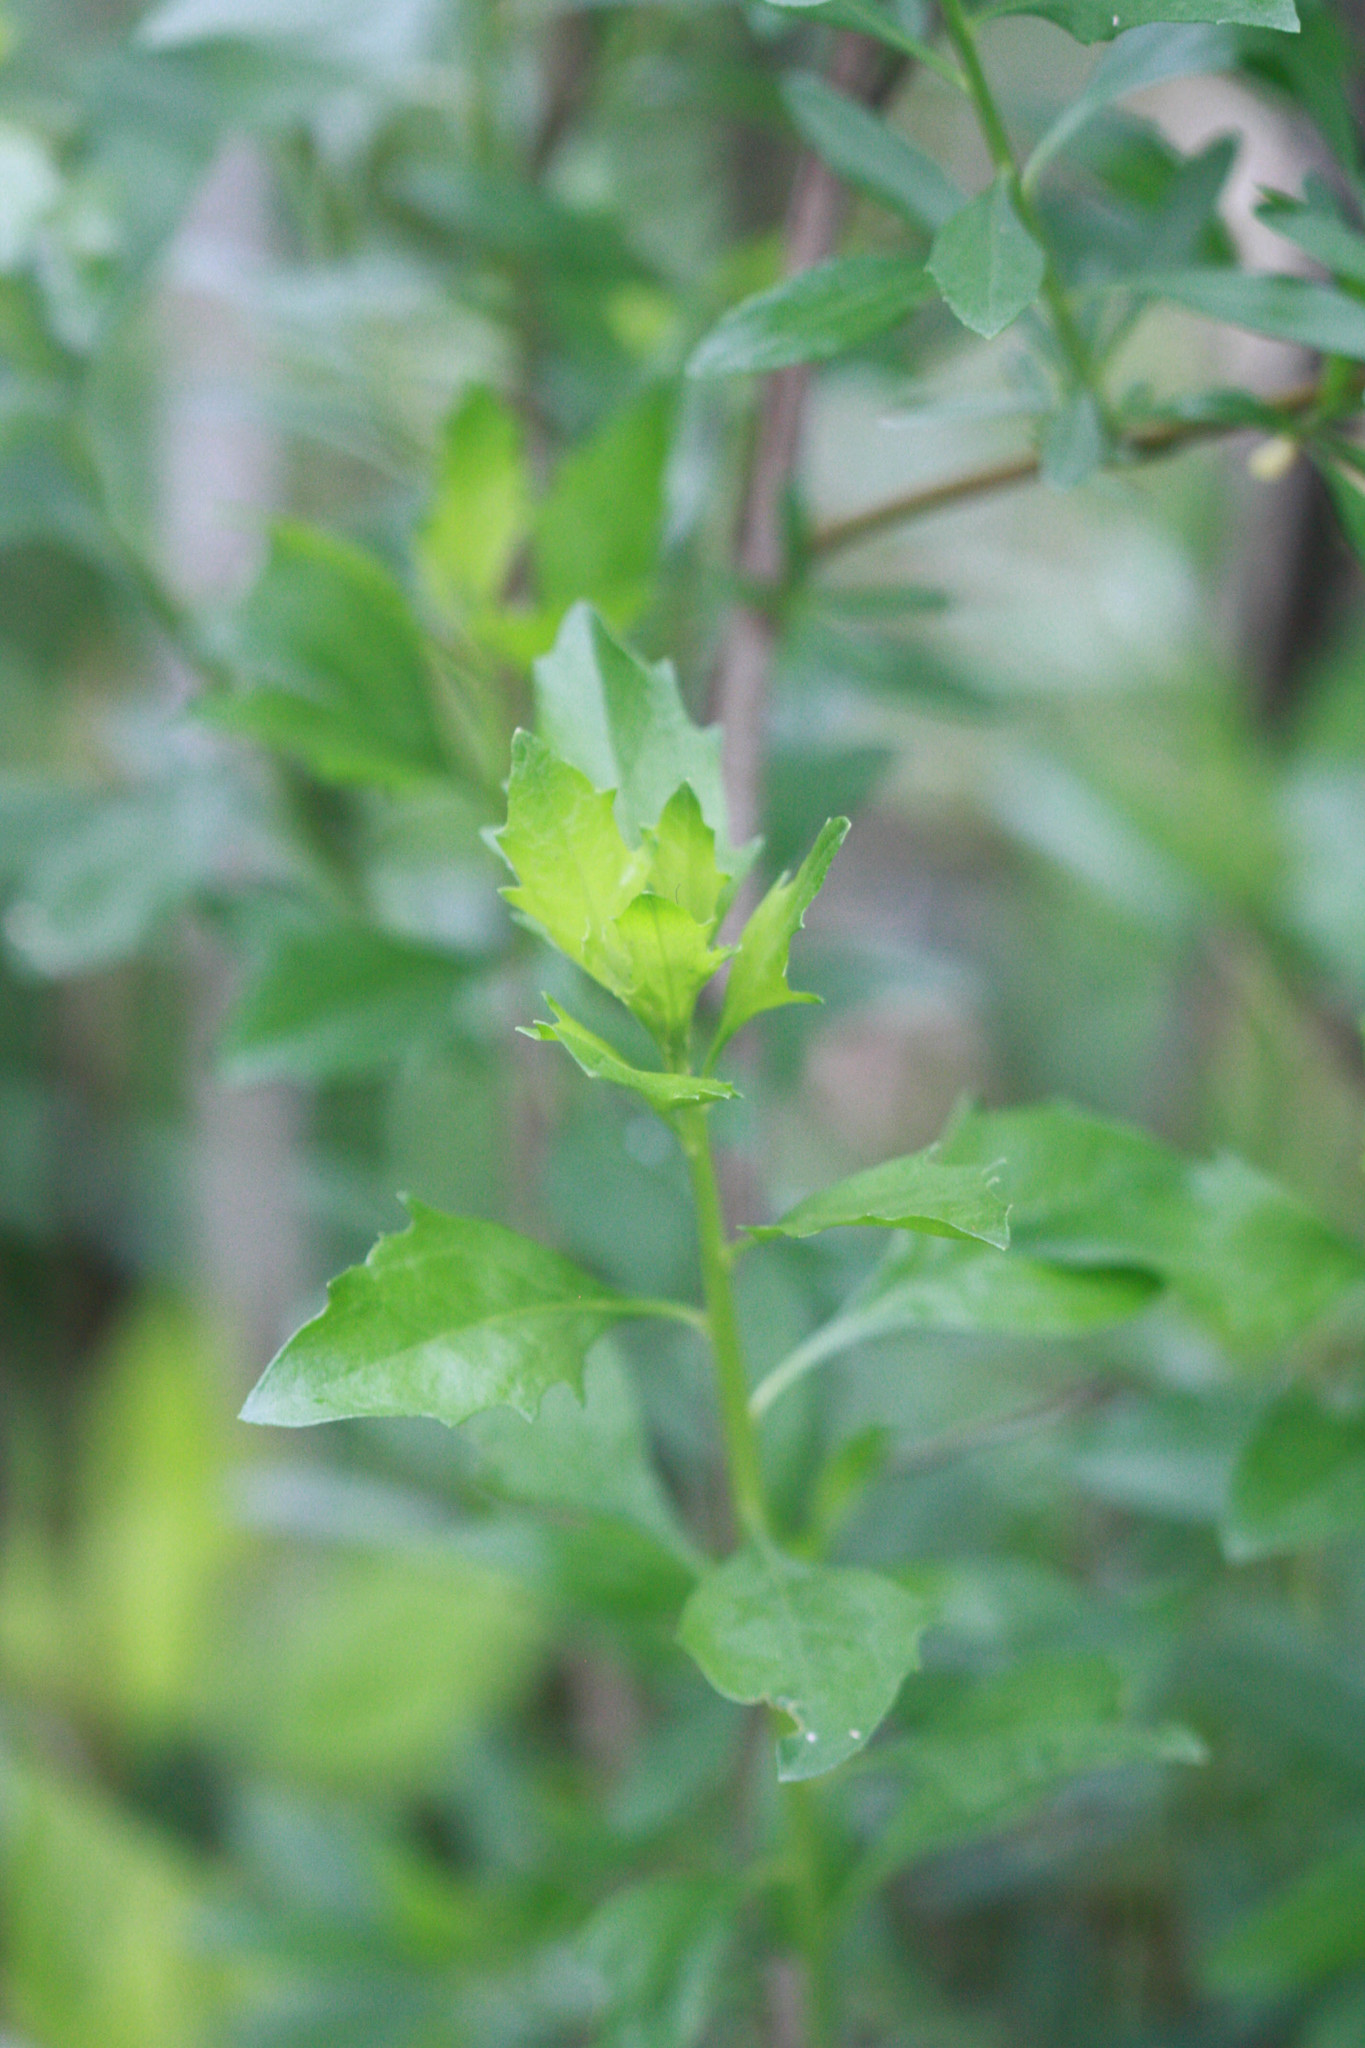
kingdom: Plantae
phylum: Tracheophyta
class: Magnoliopsida
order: Asterales
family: Asteraceae
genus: Baccharis
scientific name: Baccharis halimifolia
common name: Eastern baccharis
